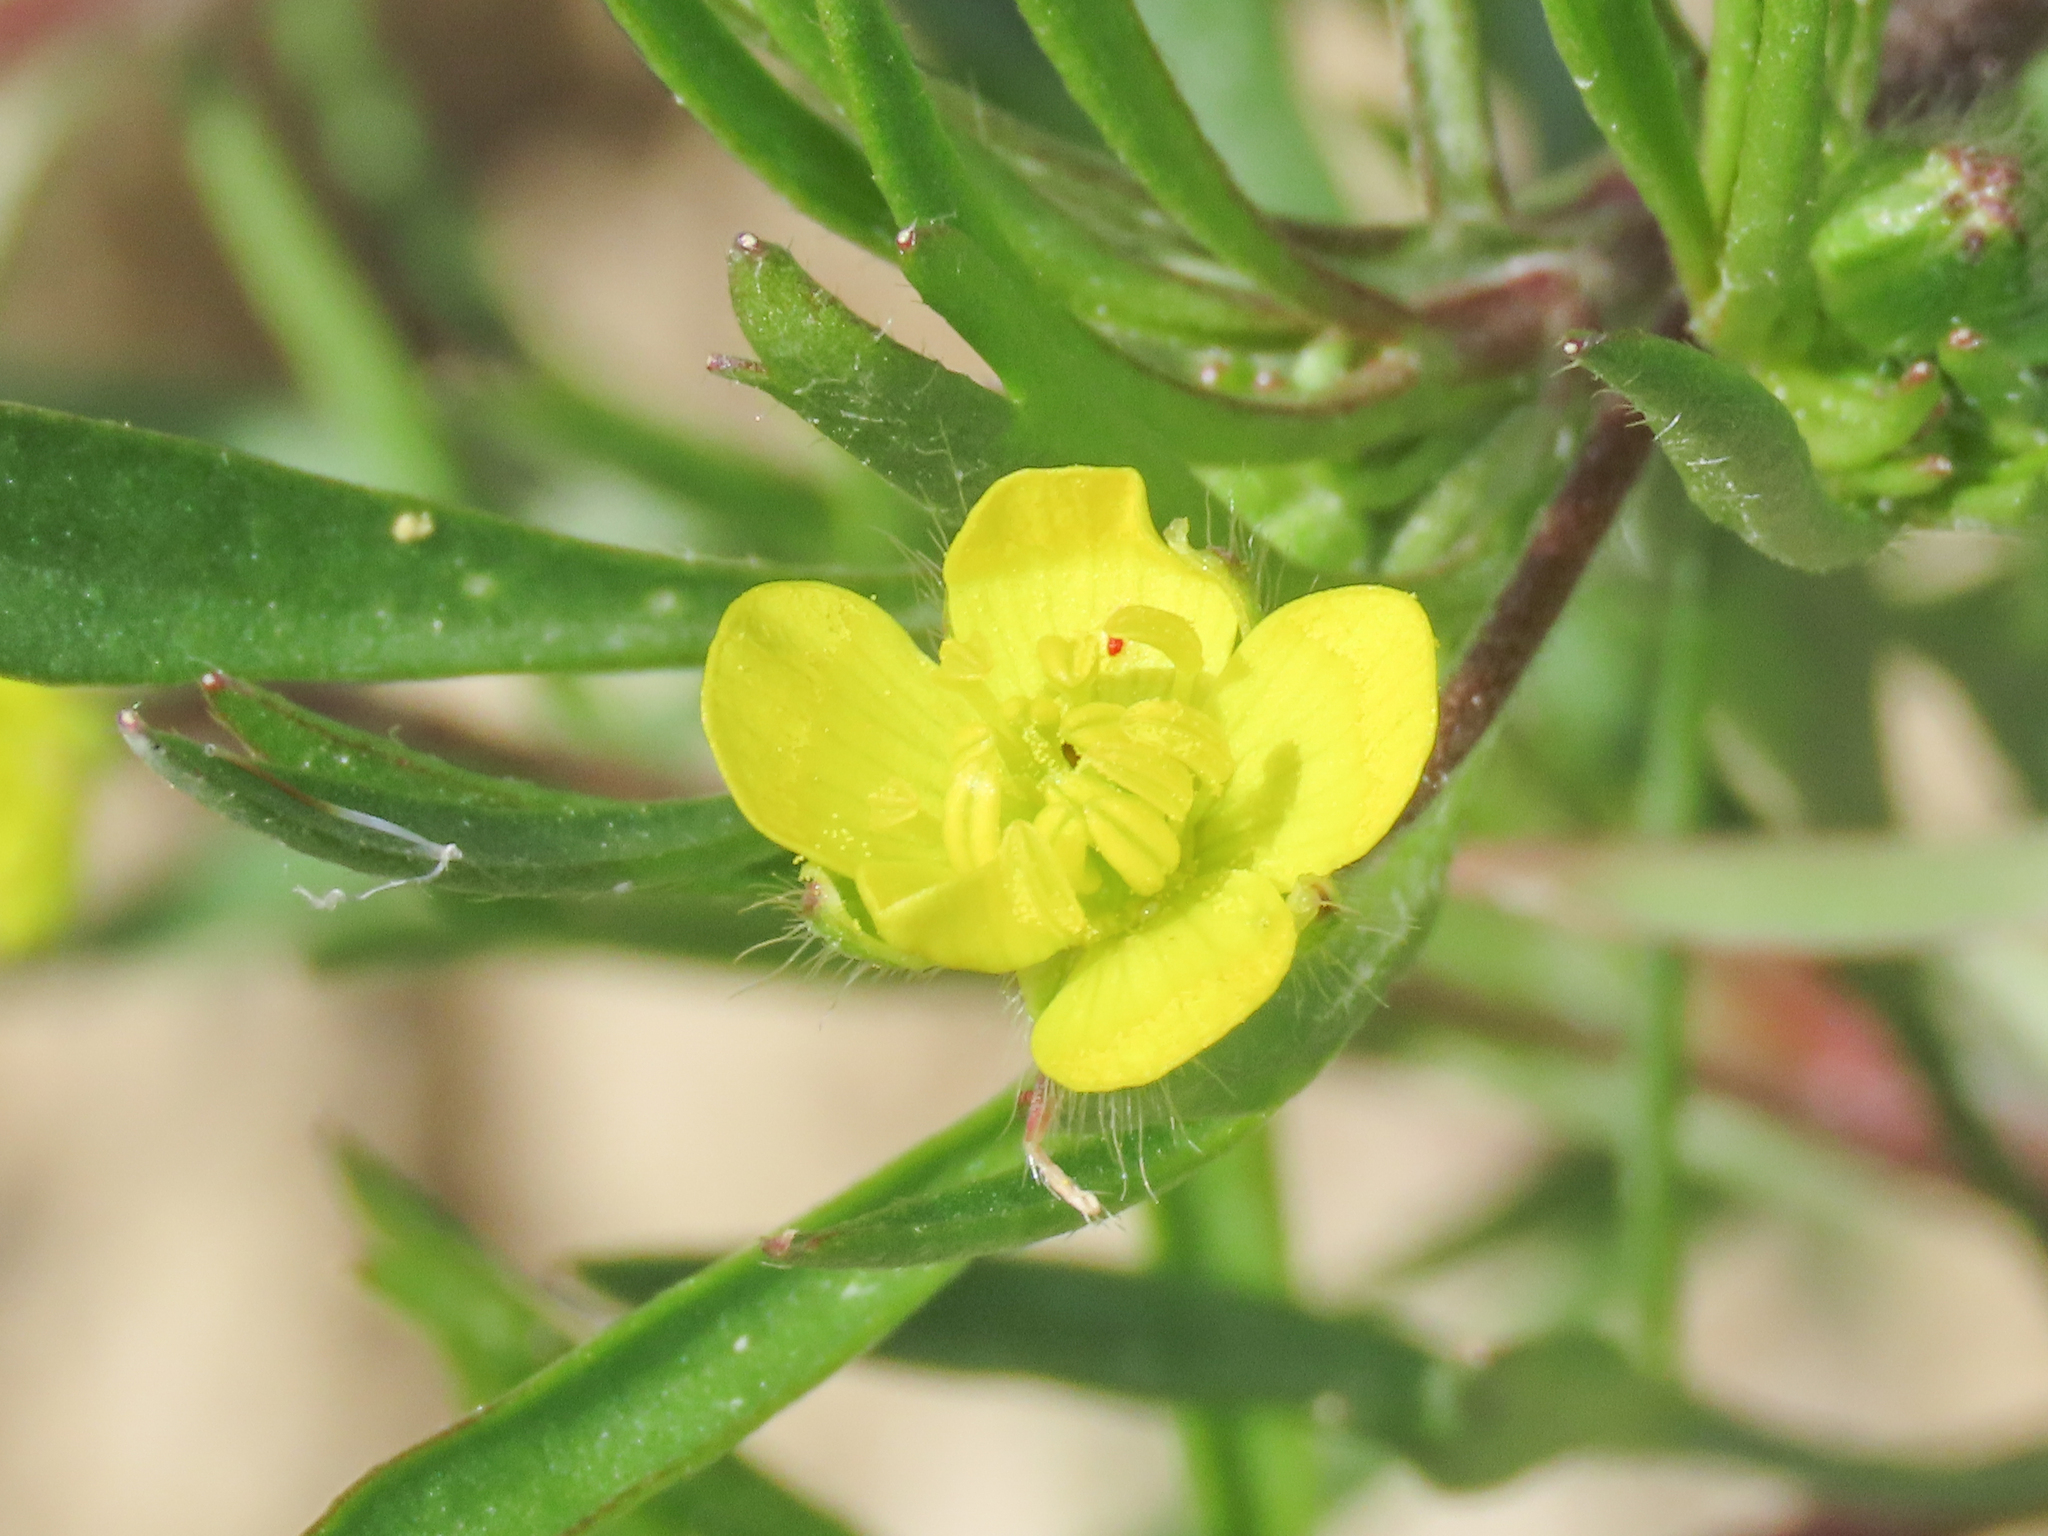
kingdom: Plantae
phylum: Tracheophyta
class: Magnoliopsida
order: Ranunculales
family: Ranunculaceae
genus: Ranunculus
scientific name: Ranunculus arvensis
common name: Corn buttercup
